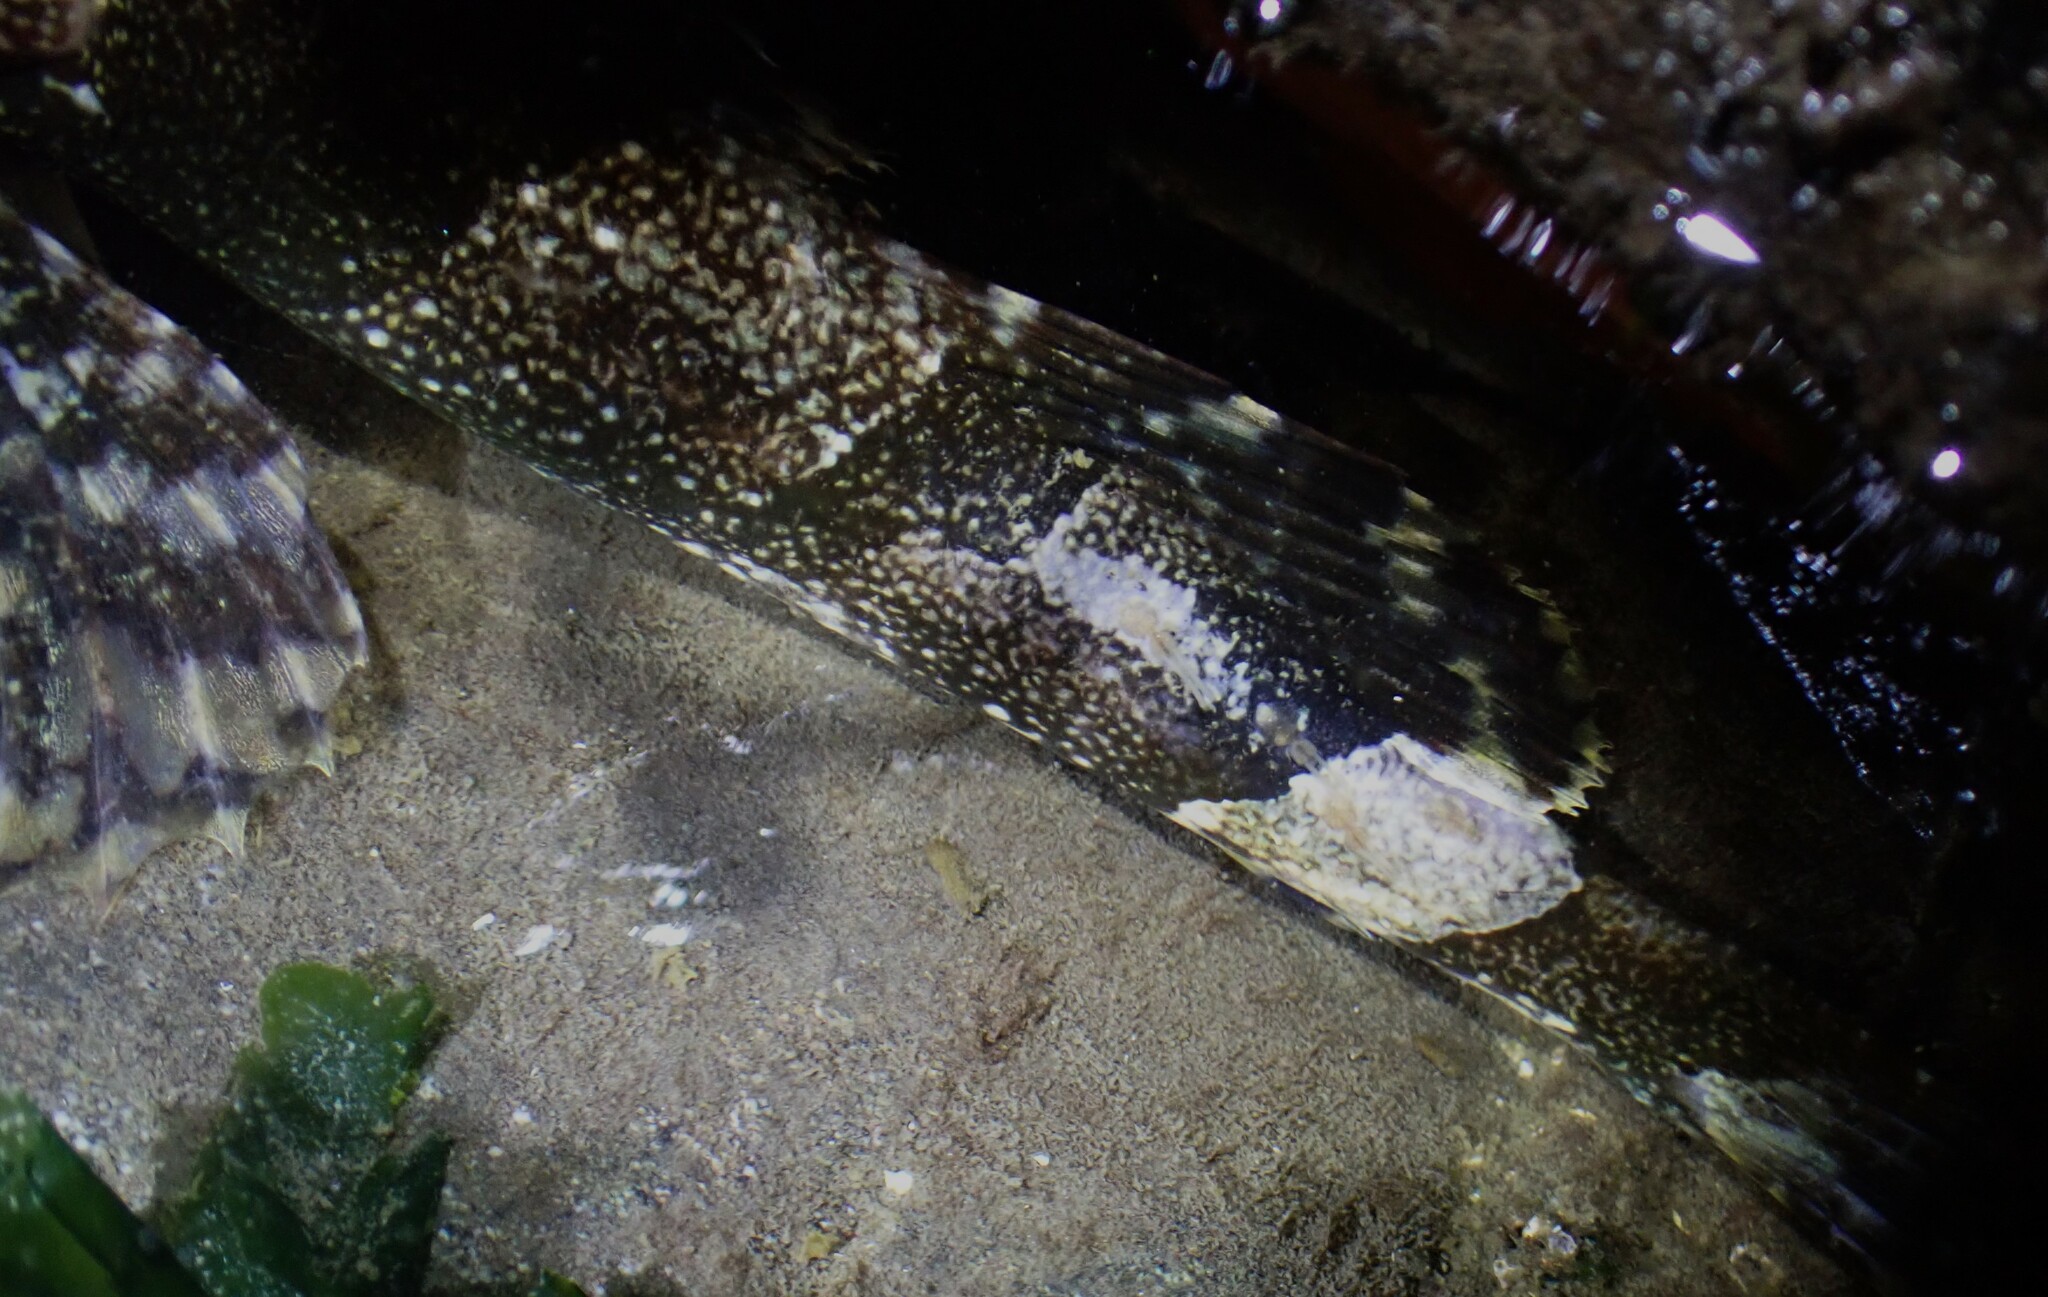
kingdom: Animalia
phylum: Chordata
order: Scorpaeniformes
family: Cottidae
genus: Myoxocephalus
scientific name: Myoxocephalus polyacanthocephalus
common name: Great sculpin
